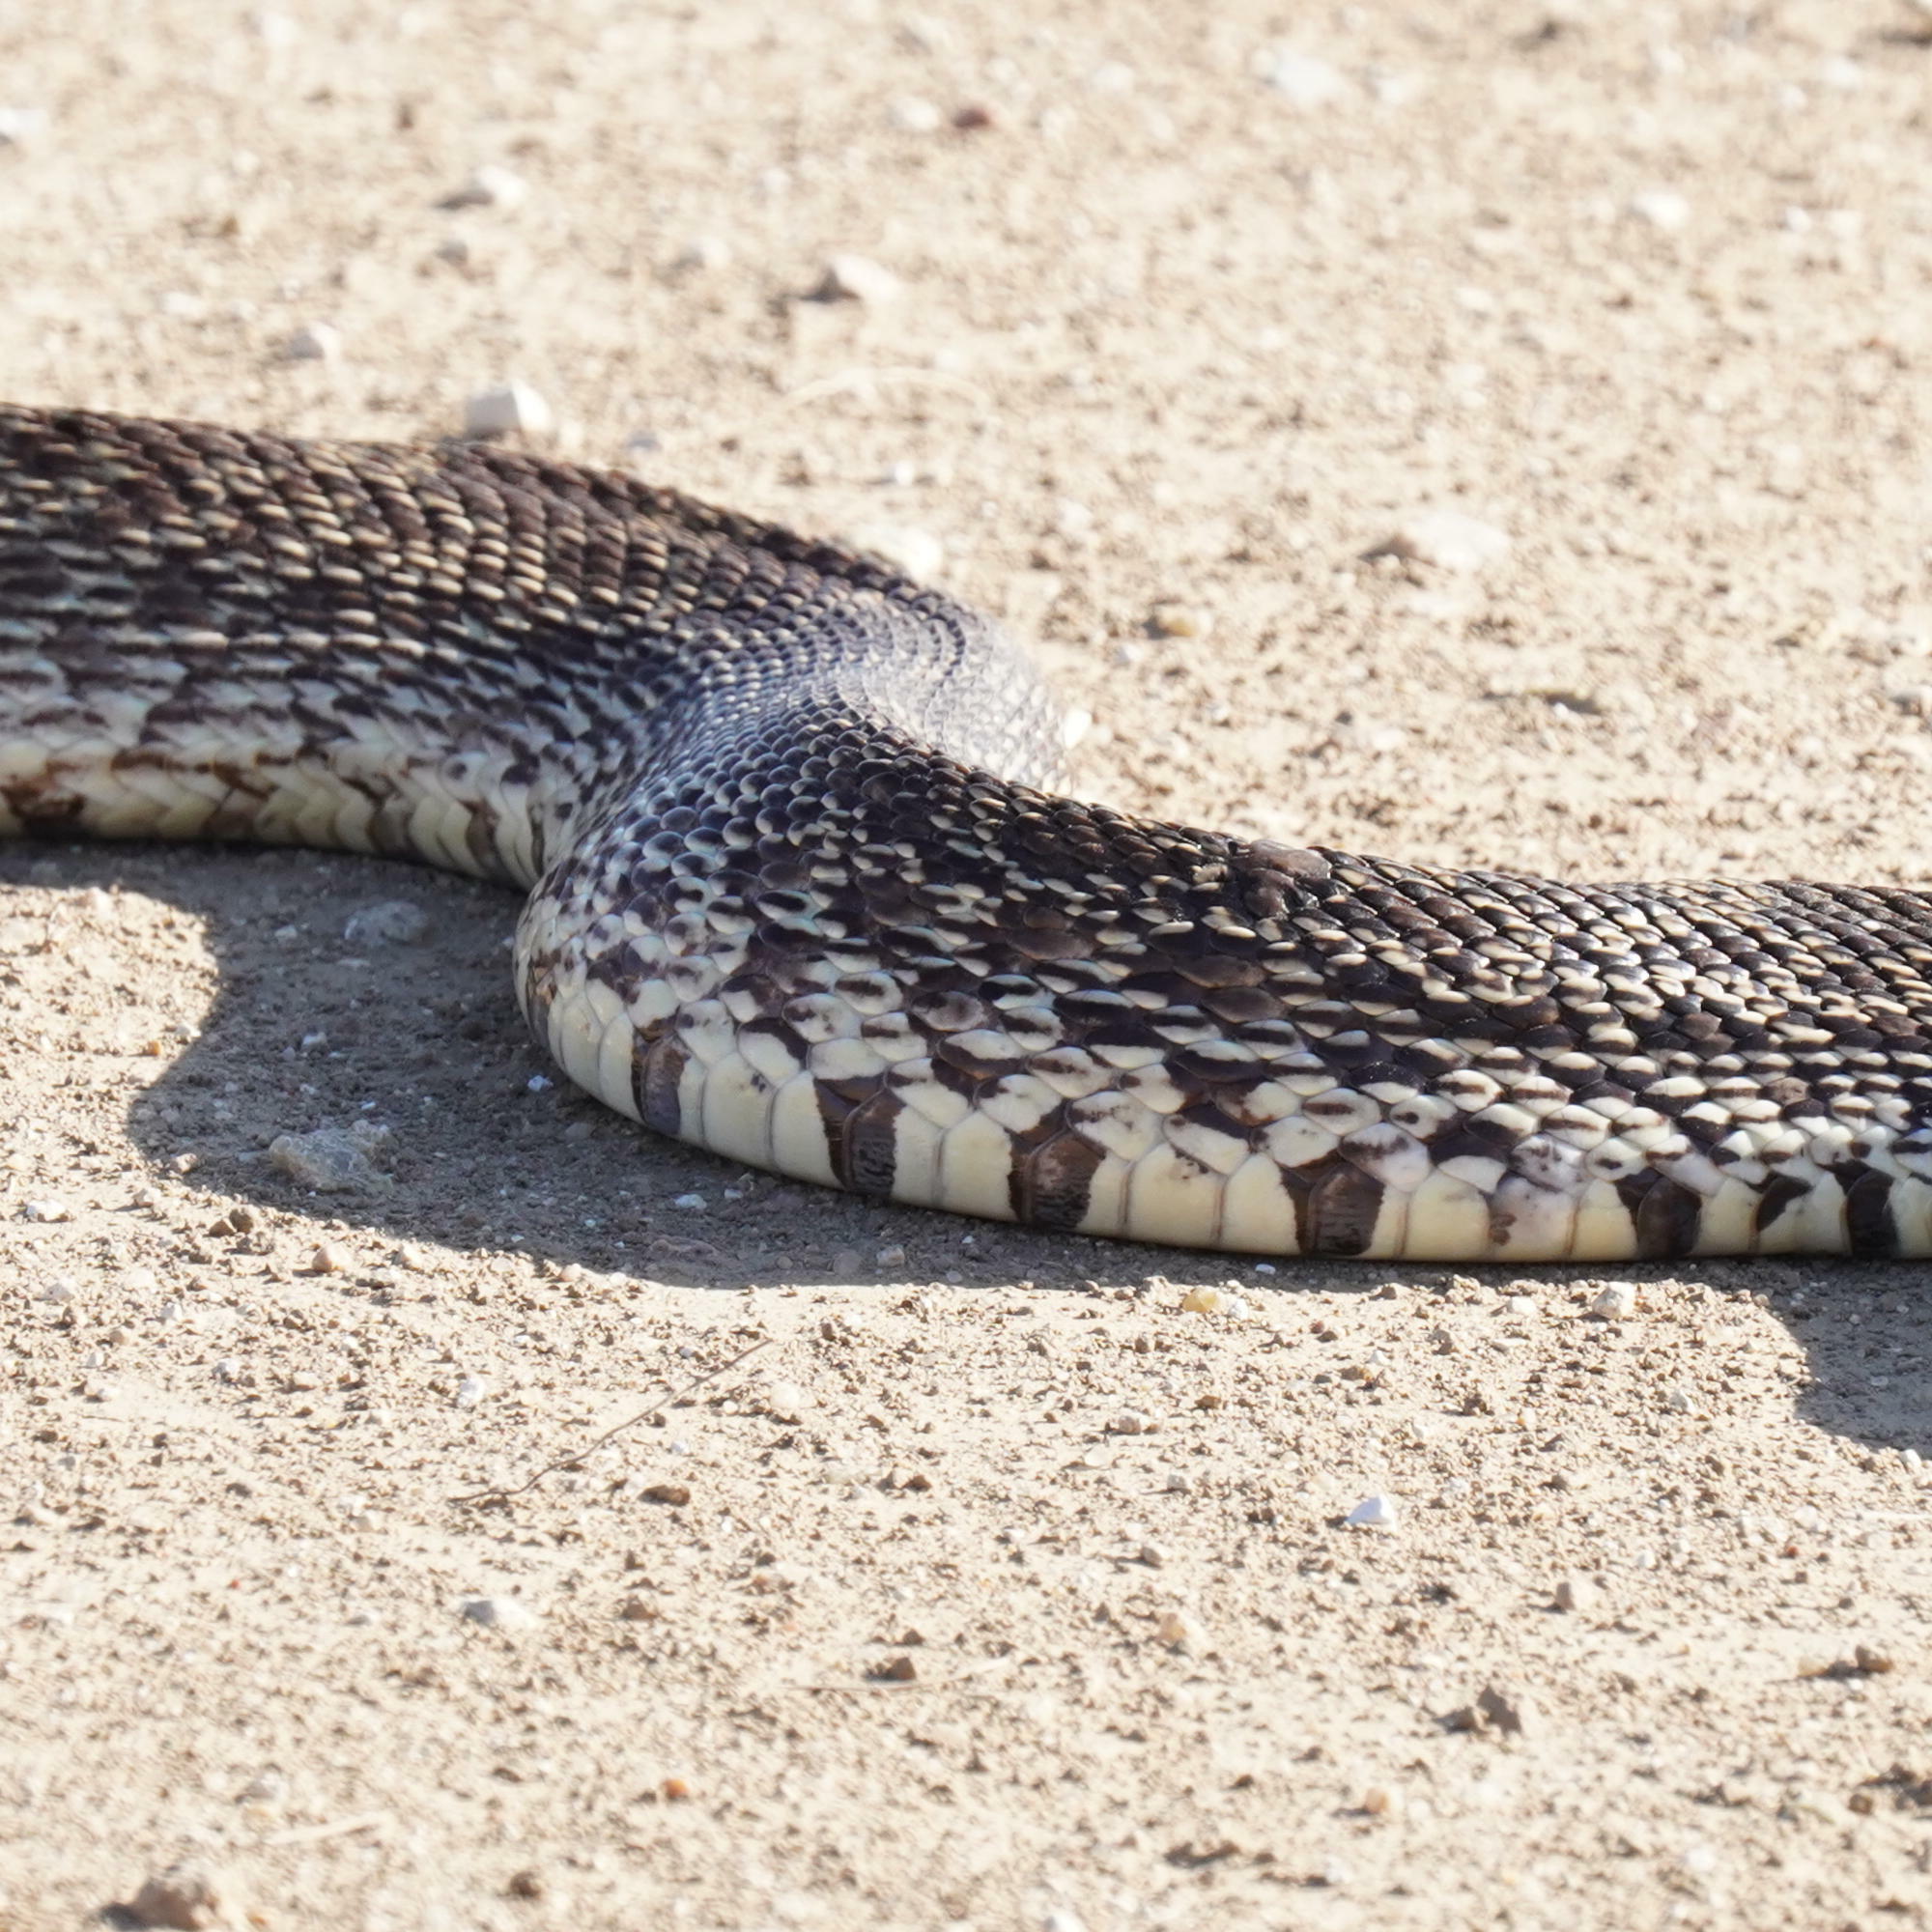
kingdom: Animalia
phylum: Chordata
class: Squamata
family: Colubridae
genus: Pituophis
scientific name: Pituophis catenifer
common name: Gopher snake
